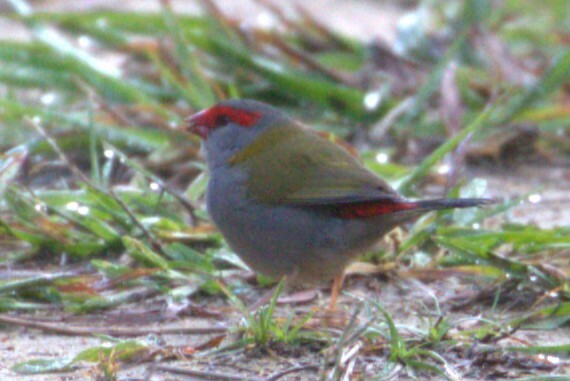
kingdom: Animalia
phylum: Chordata
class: Aves
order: Passeriformes
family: Estrildidae
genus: Neochmia
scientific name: Neochmia temporalis
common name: Red-browed finch
